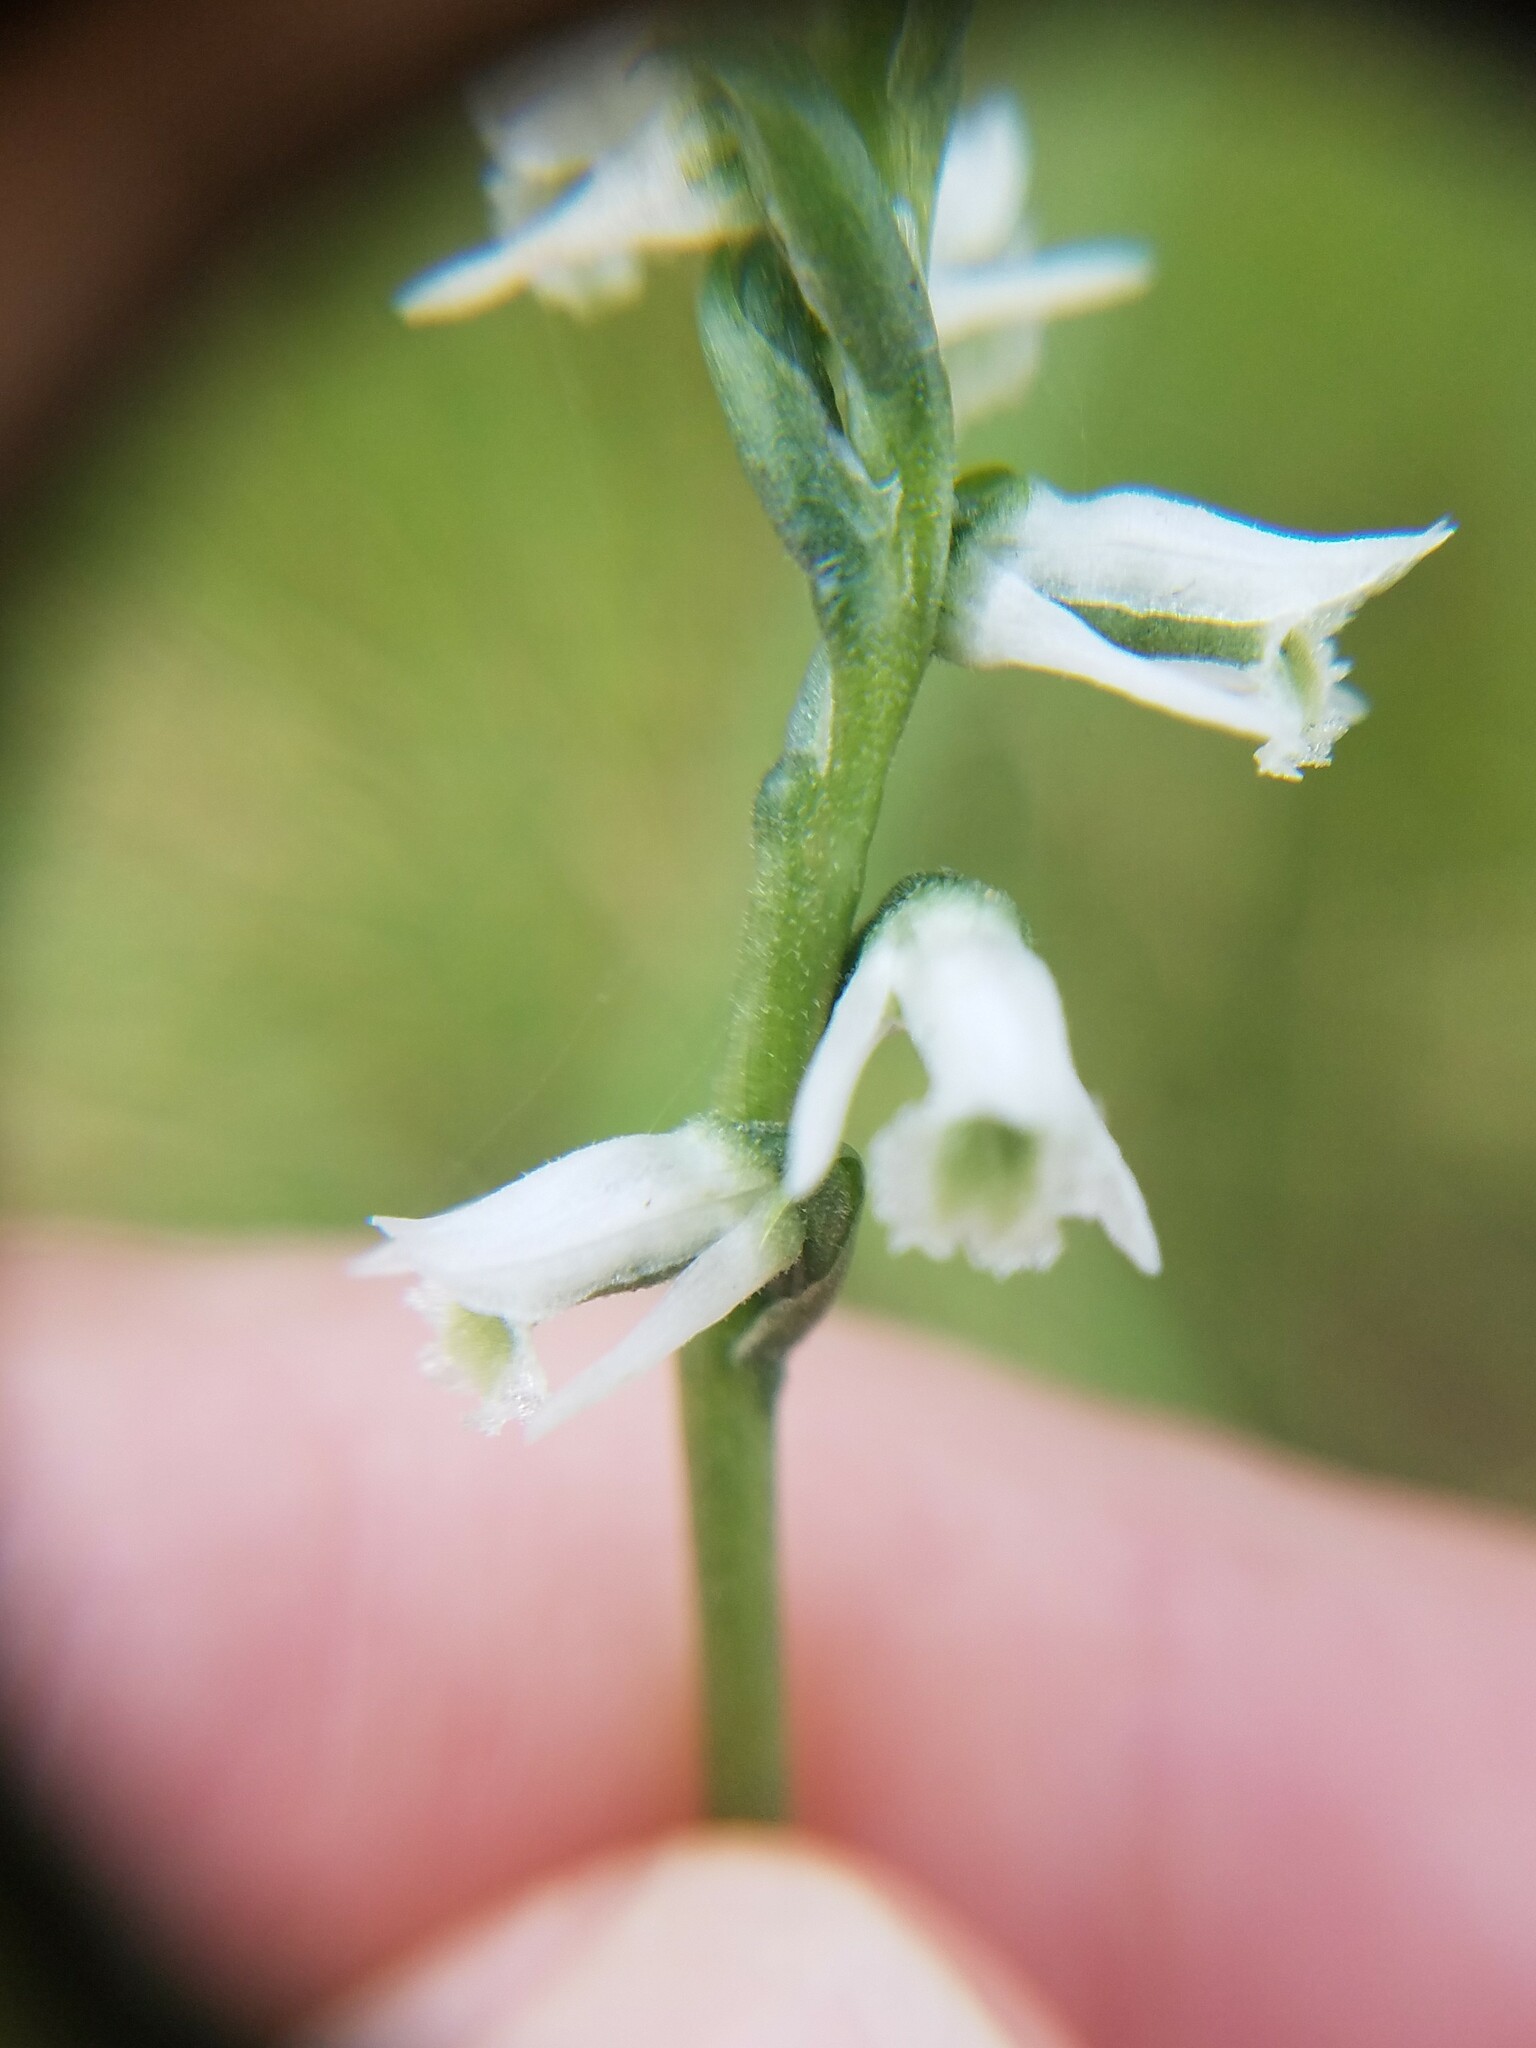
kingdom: Plantae
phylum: Tracheophyta
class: Liliopsida
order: Asparagales
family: Orchidaceae
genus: Spiranthes
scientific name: Spiranthes lacera
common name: Northern slender ladies'-tresses
